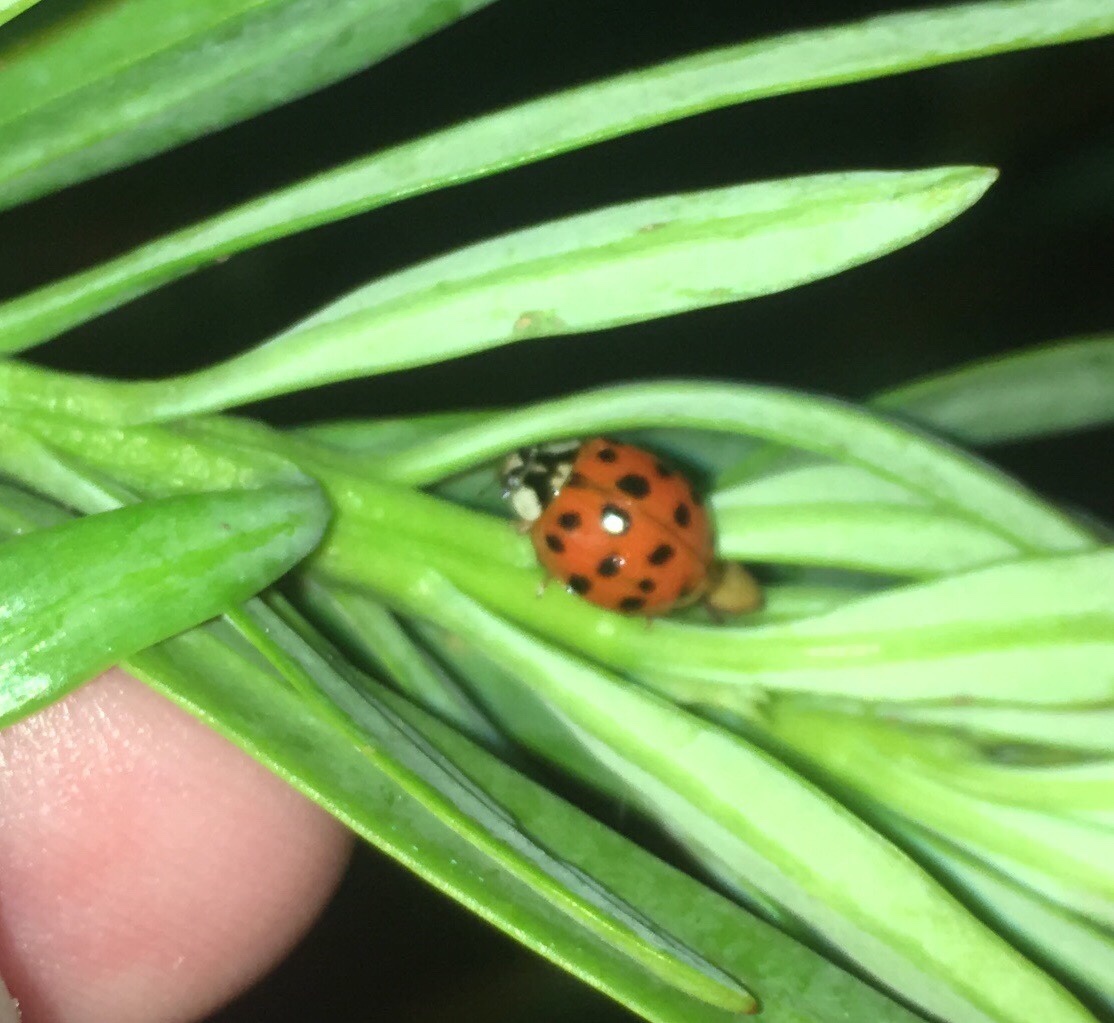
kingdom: Animalia
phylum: Arthropoda
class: Insecta
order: Coleoptera
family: Coccinellidae
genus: Harmonia
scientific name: Harmonia axyridis
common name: Harlequin ladybird
